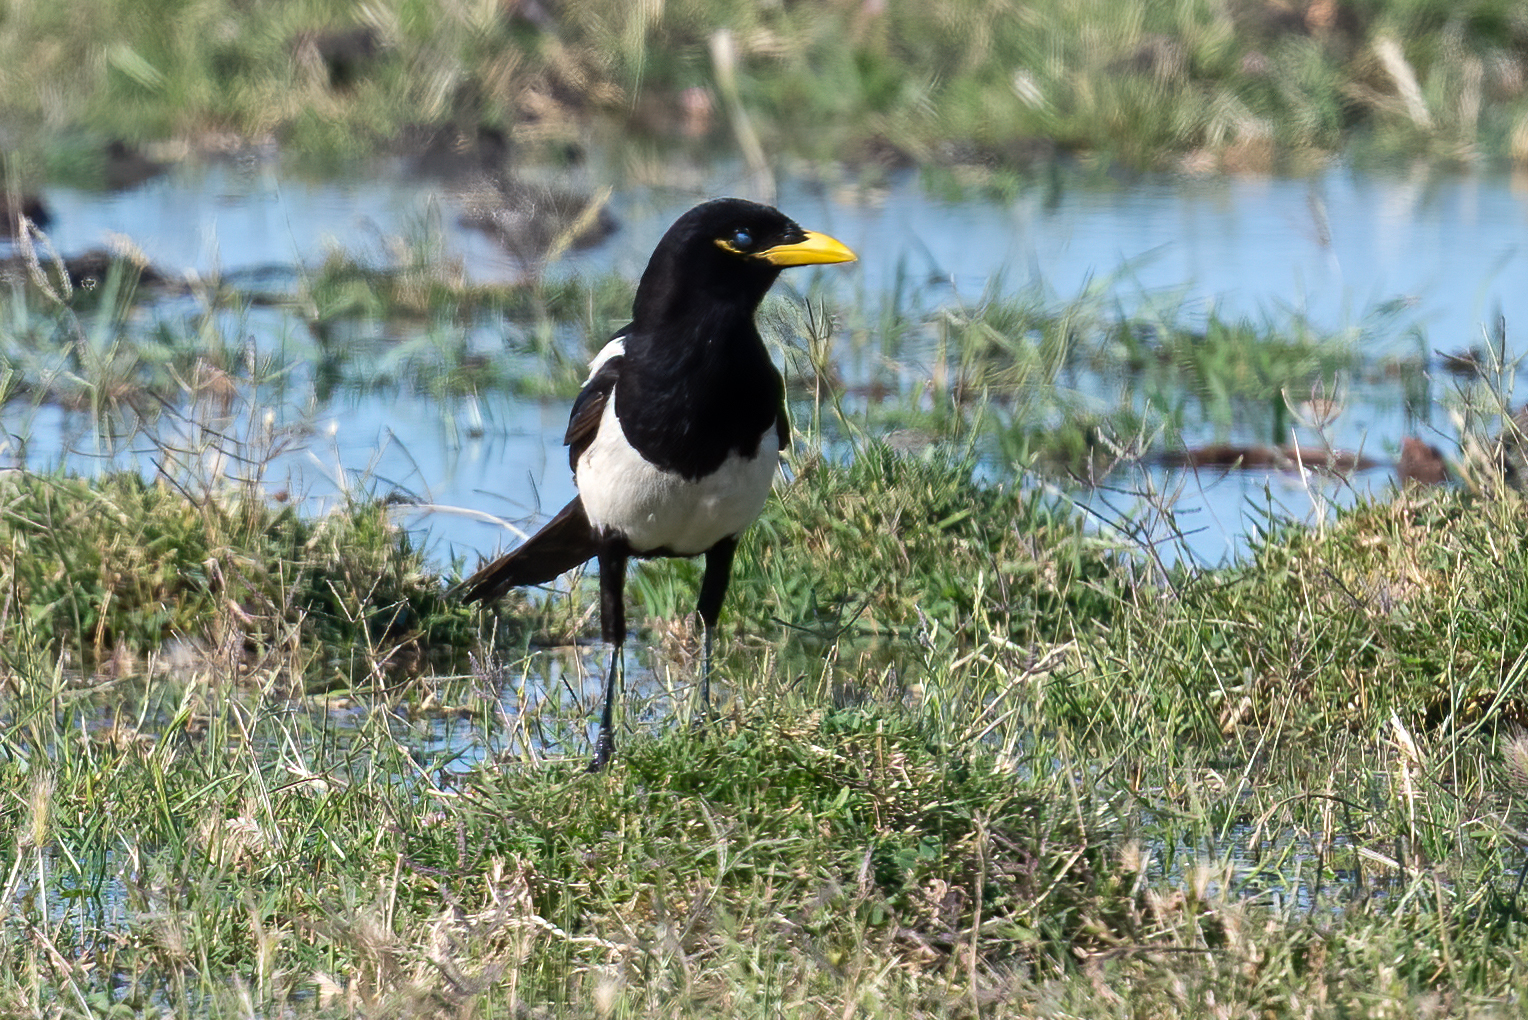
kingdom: Animalia
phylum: Chordata
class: Aves
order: Passeriformes
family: Corvidae
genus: Pica
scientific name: Pica nuttalli
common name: Yellow-billed magpie
